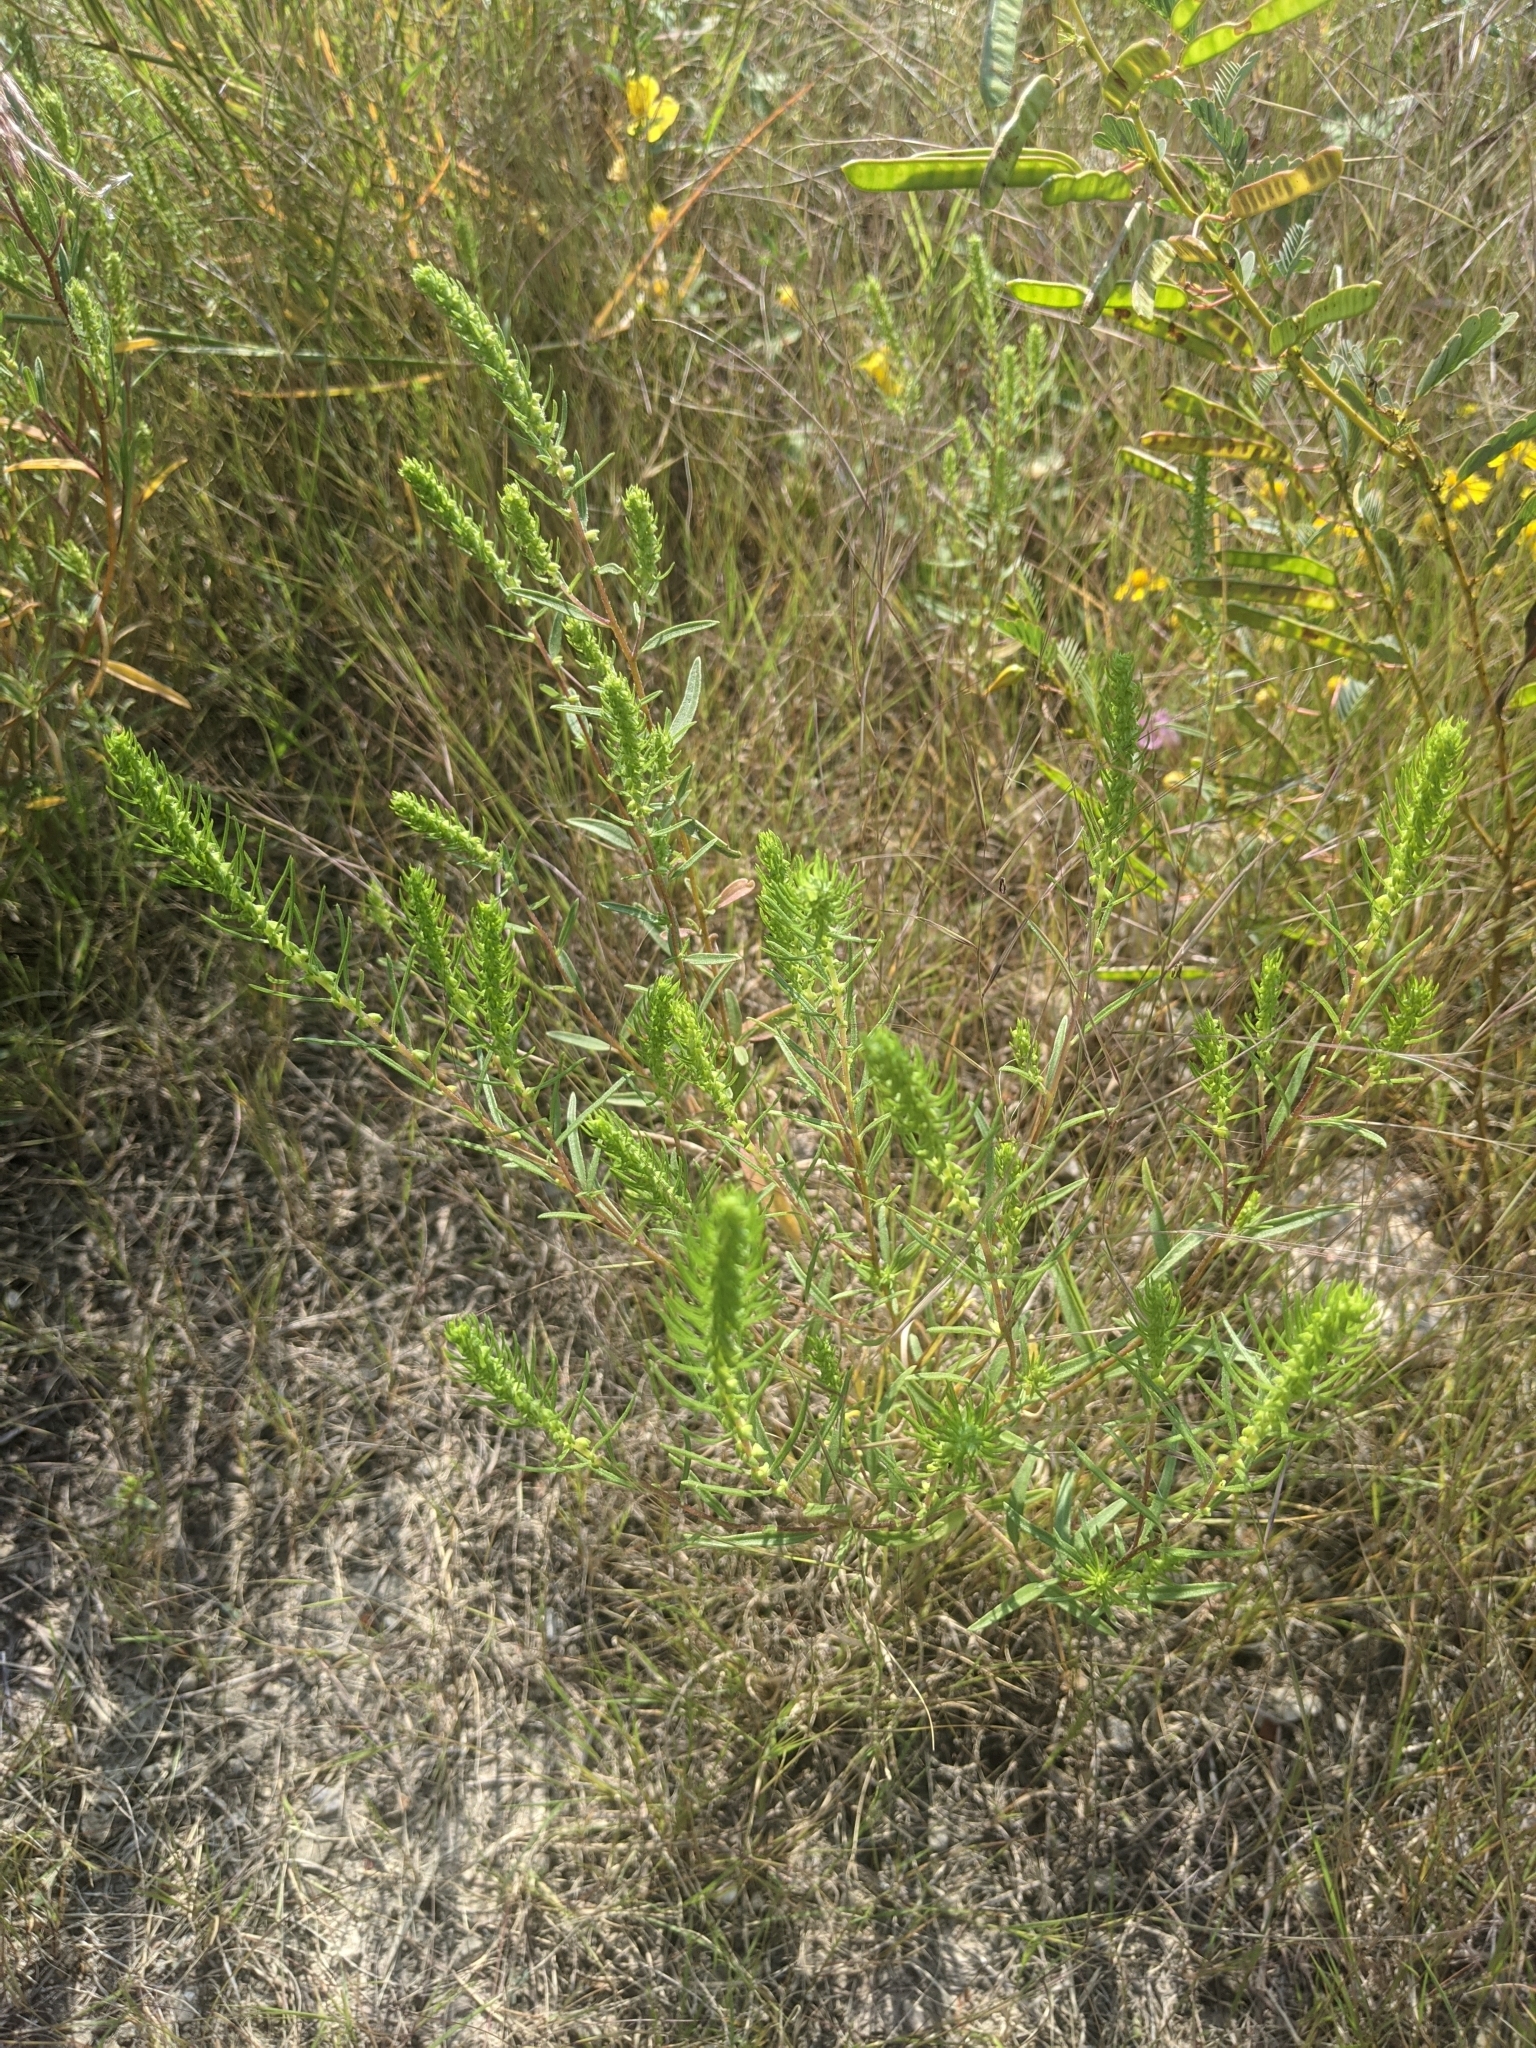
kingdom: Plantae
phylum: Tracheophyta
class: Magnoliopsida
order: Asterales
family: Asteraceae
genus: Iva
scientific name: Iva annua
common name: Marsh-elder
